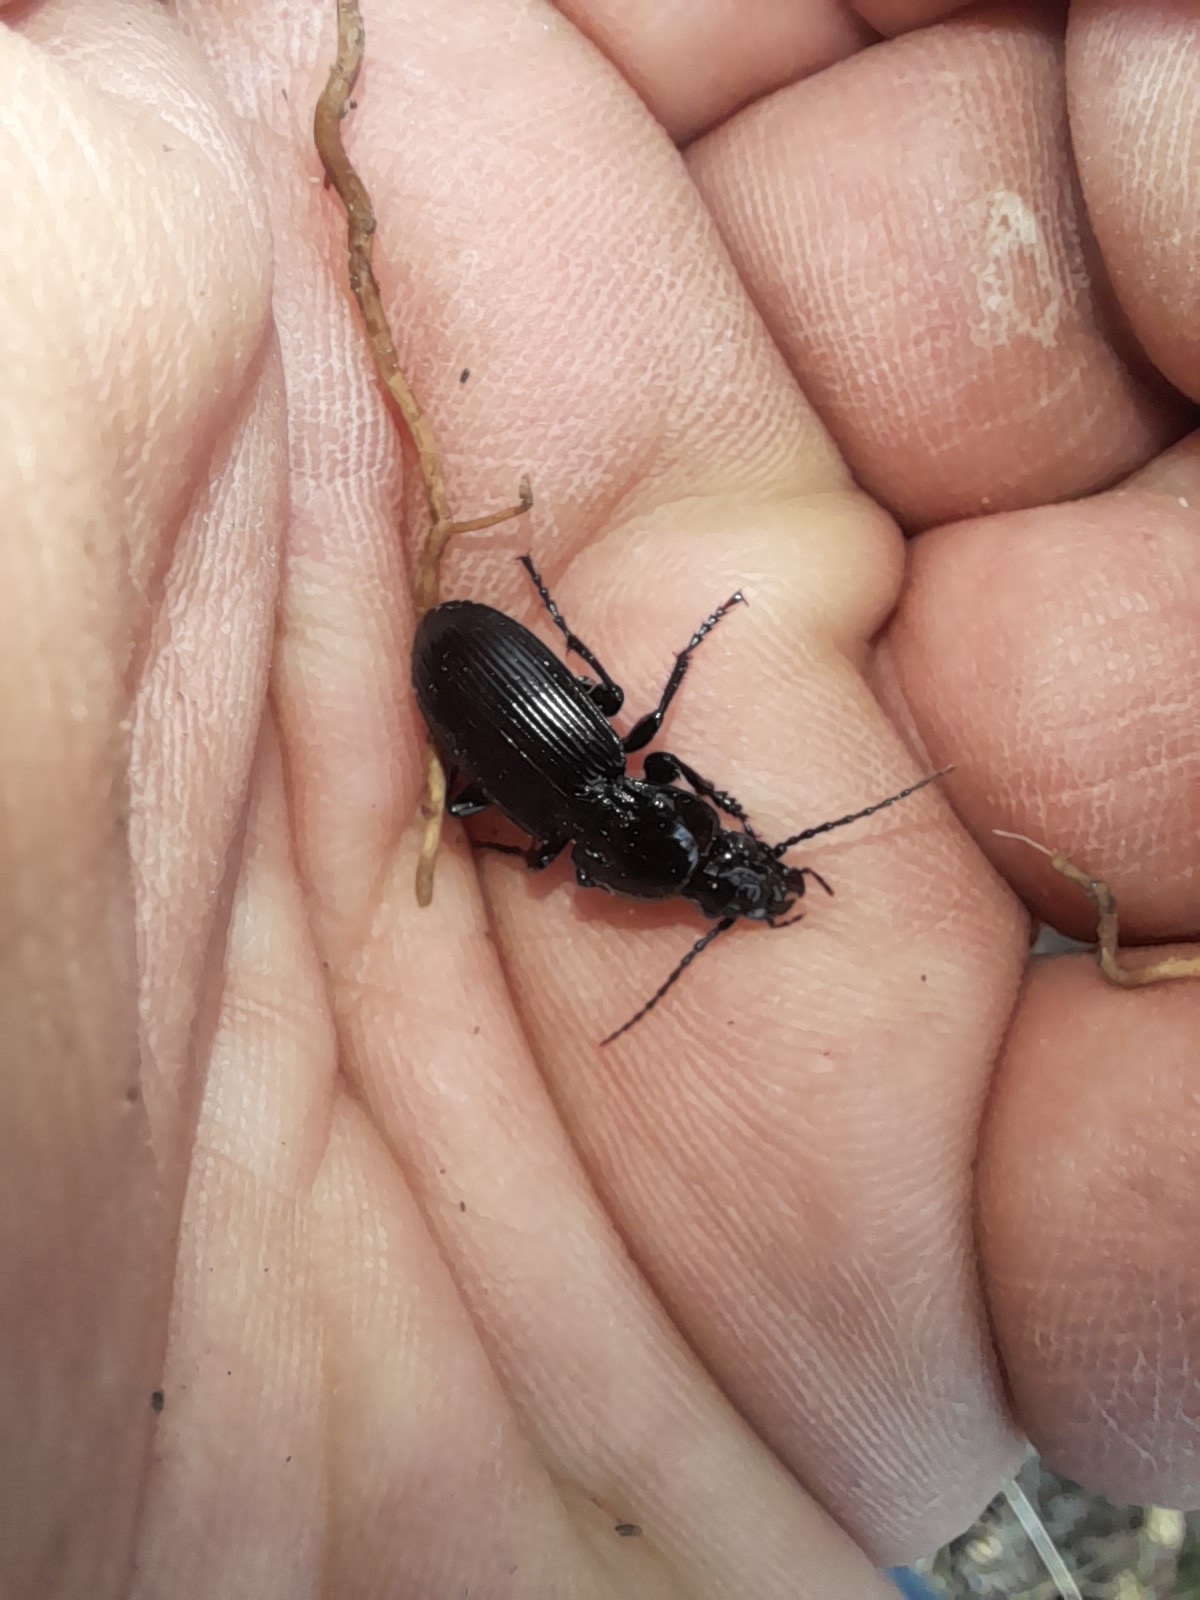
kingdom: Animalia
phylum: Arthropoda
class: Insecta
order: Coleoptera
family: Carabidae
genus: Pterostichus
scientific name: Pterostichus melas
